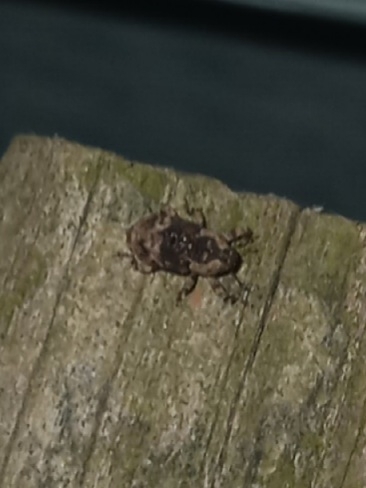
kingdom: Animalia
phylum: Arthropoda
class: Insecta
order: Coleoptera
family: Curculionidae
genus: Cophes
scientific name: Cophes fallax
